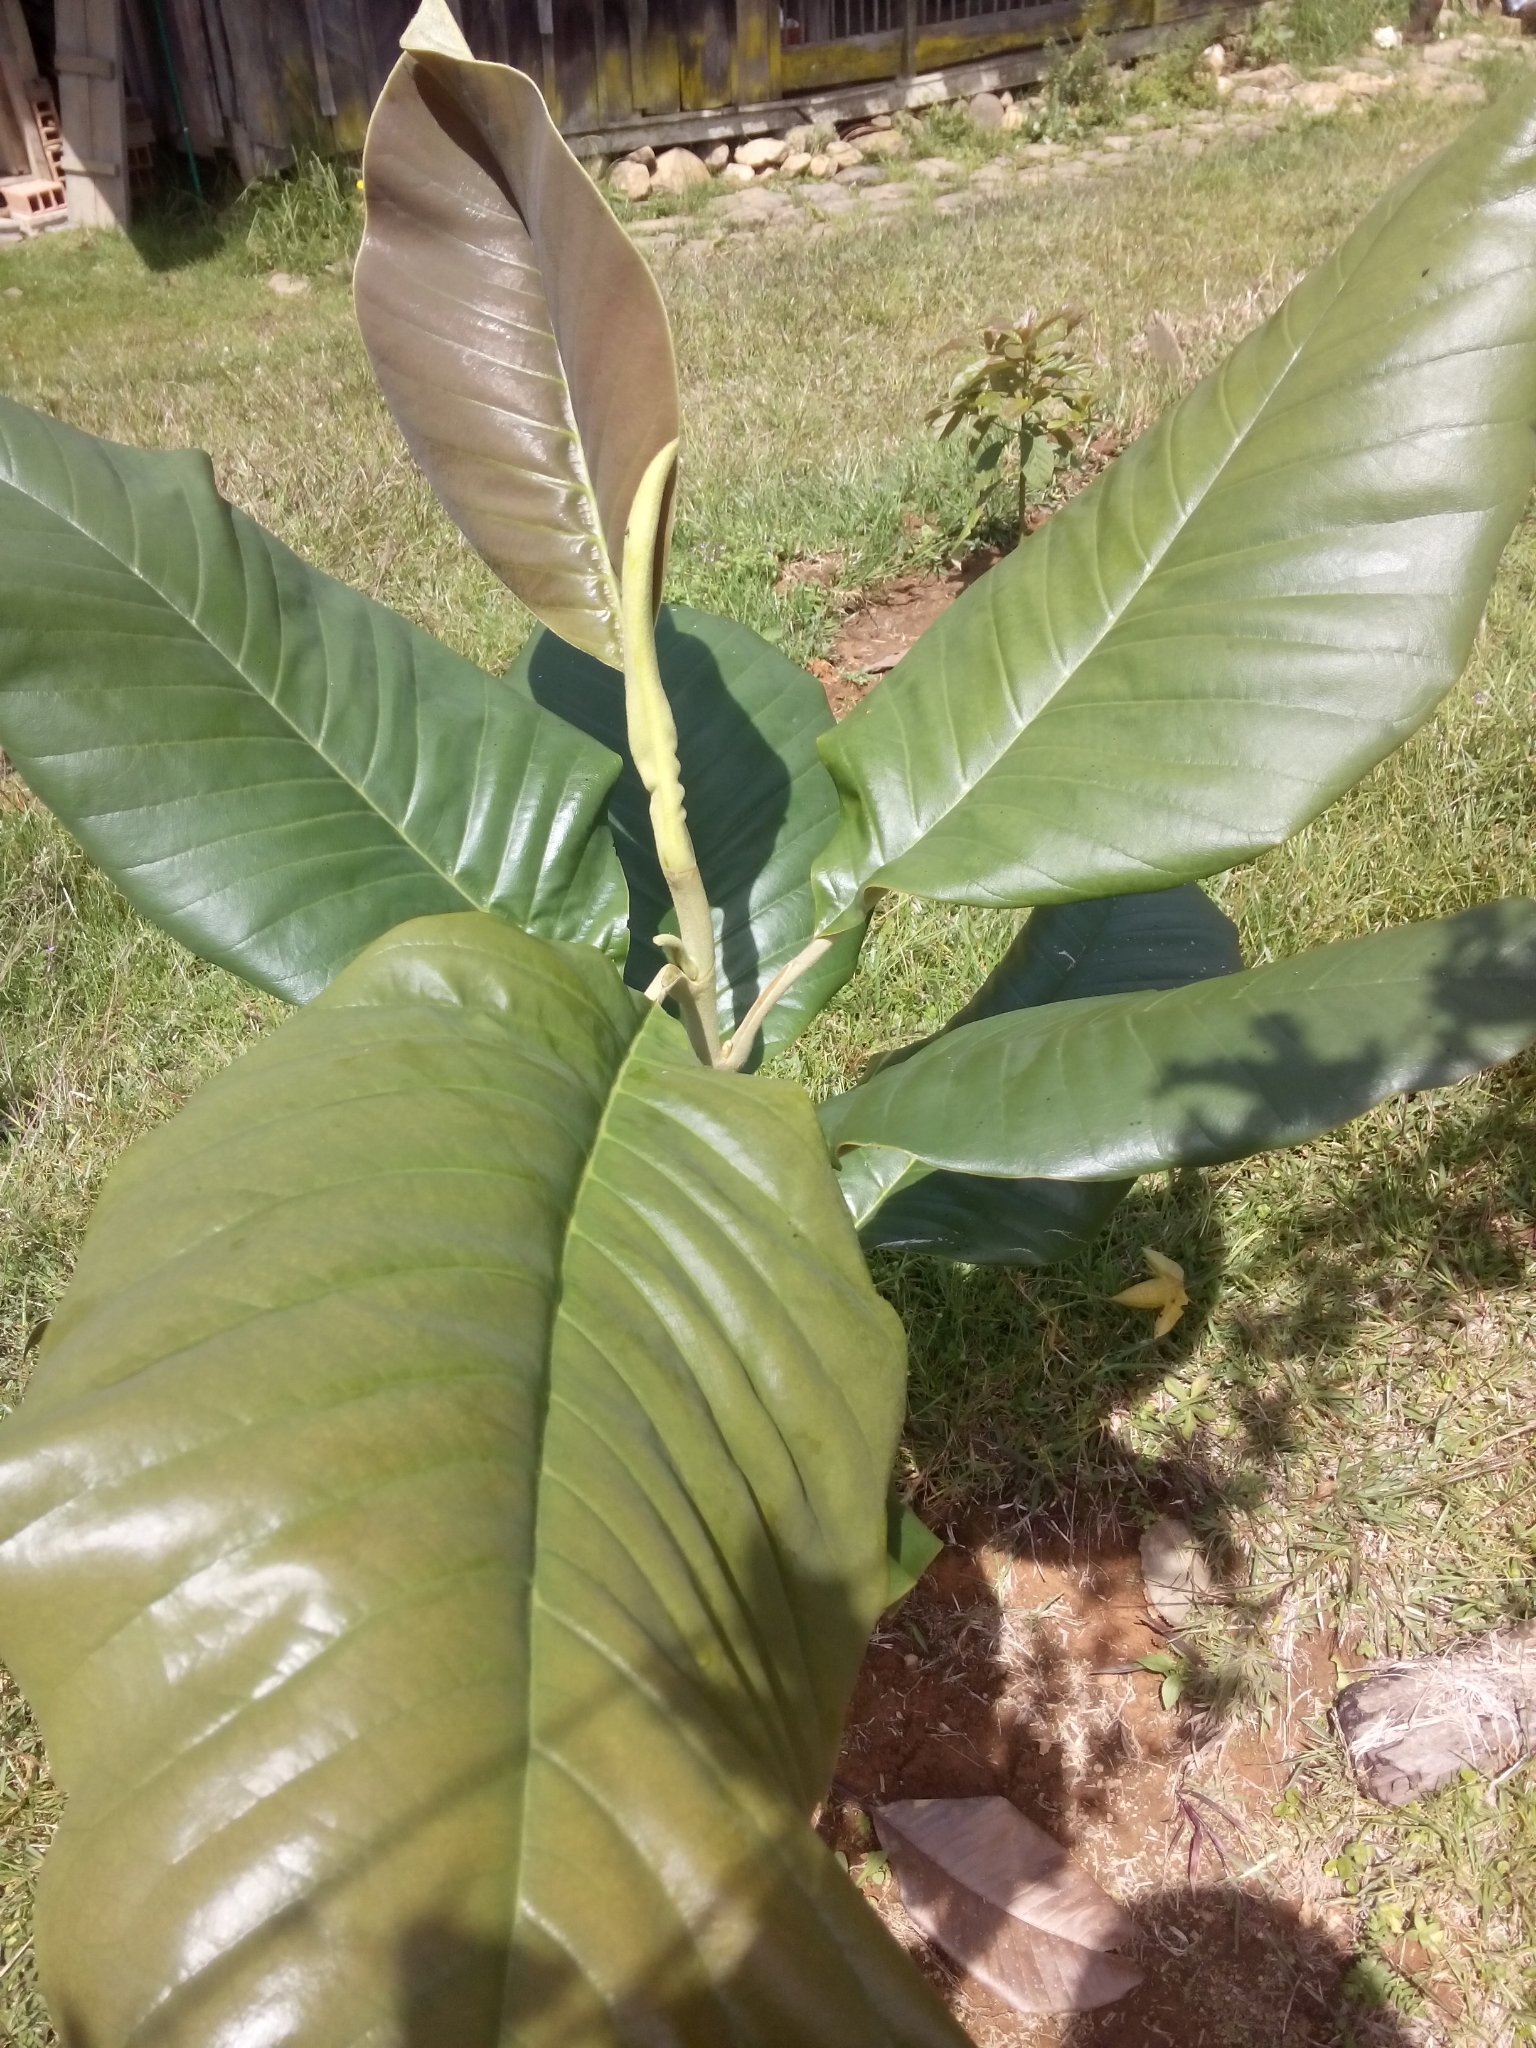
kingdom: Plantae
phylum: Tracheophyta
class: Magnoliopsida
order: Magnoliales
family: Magnoliaceae
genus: Magnolia
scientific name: Magnolia jardinensis
